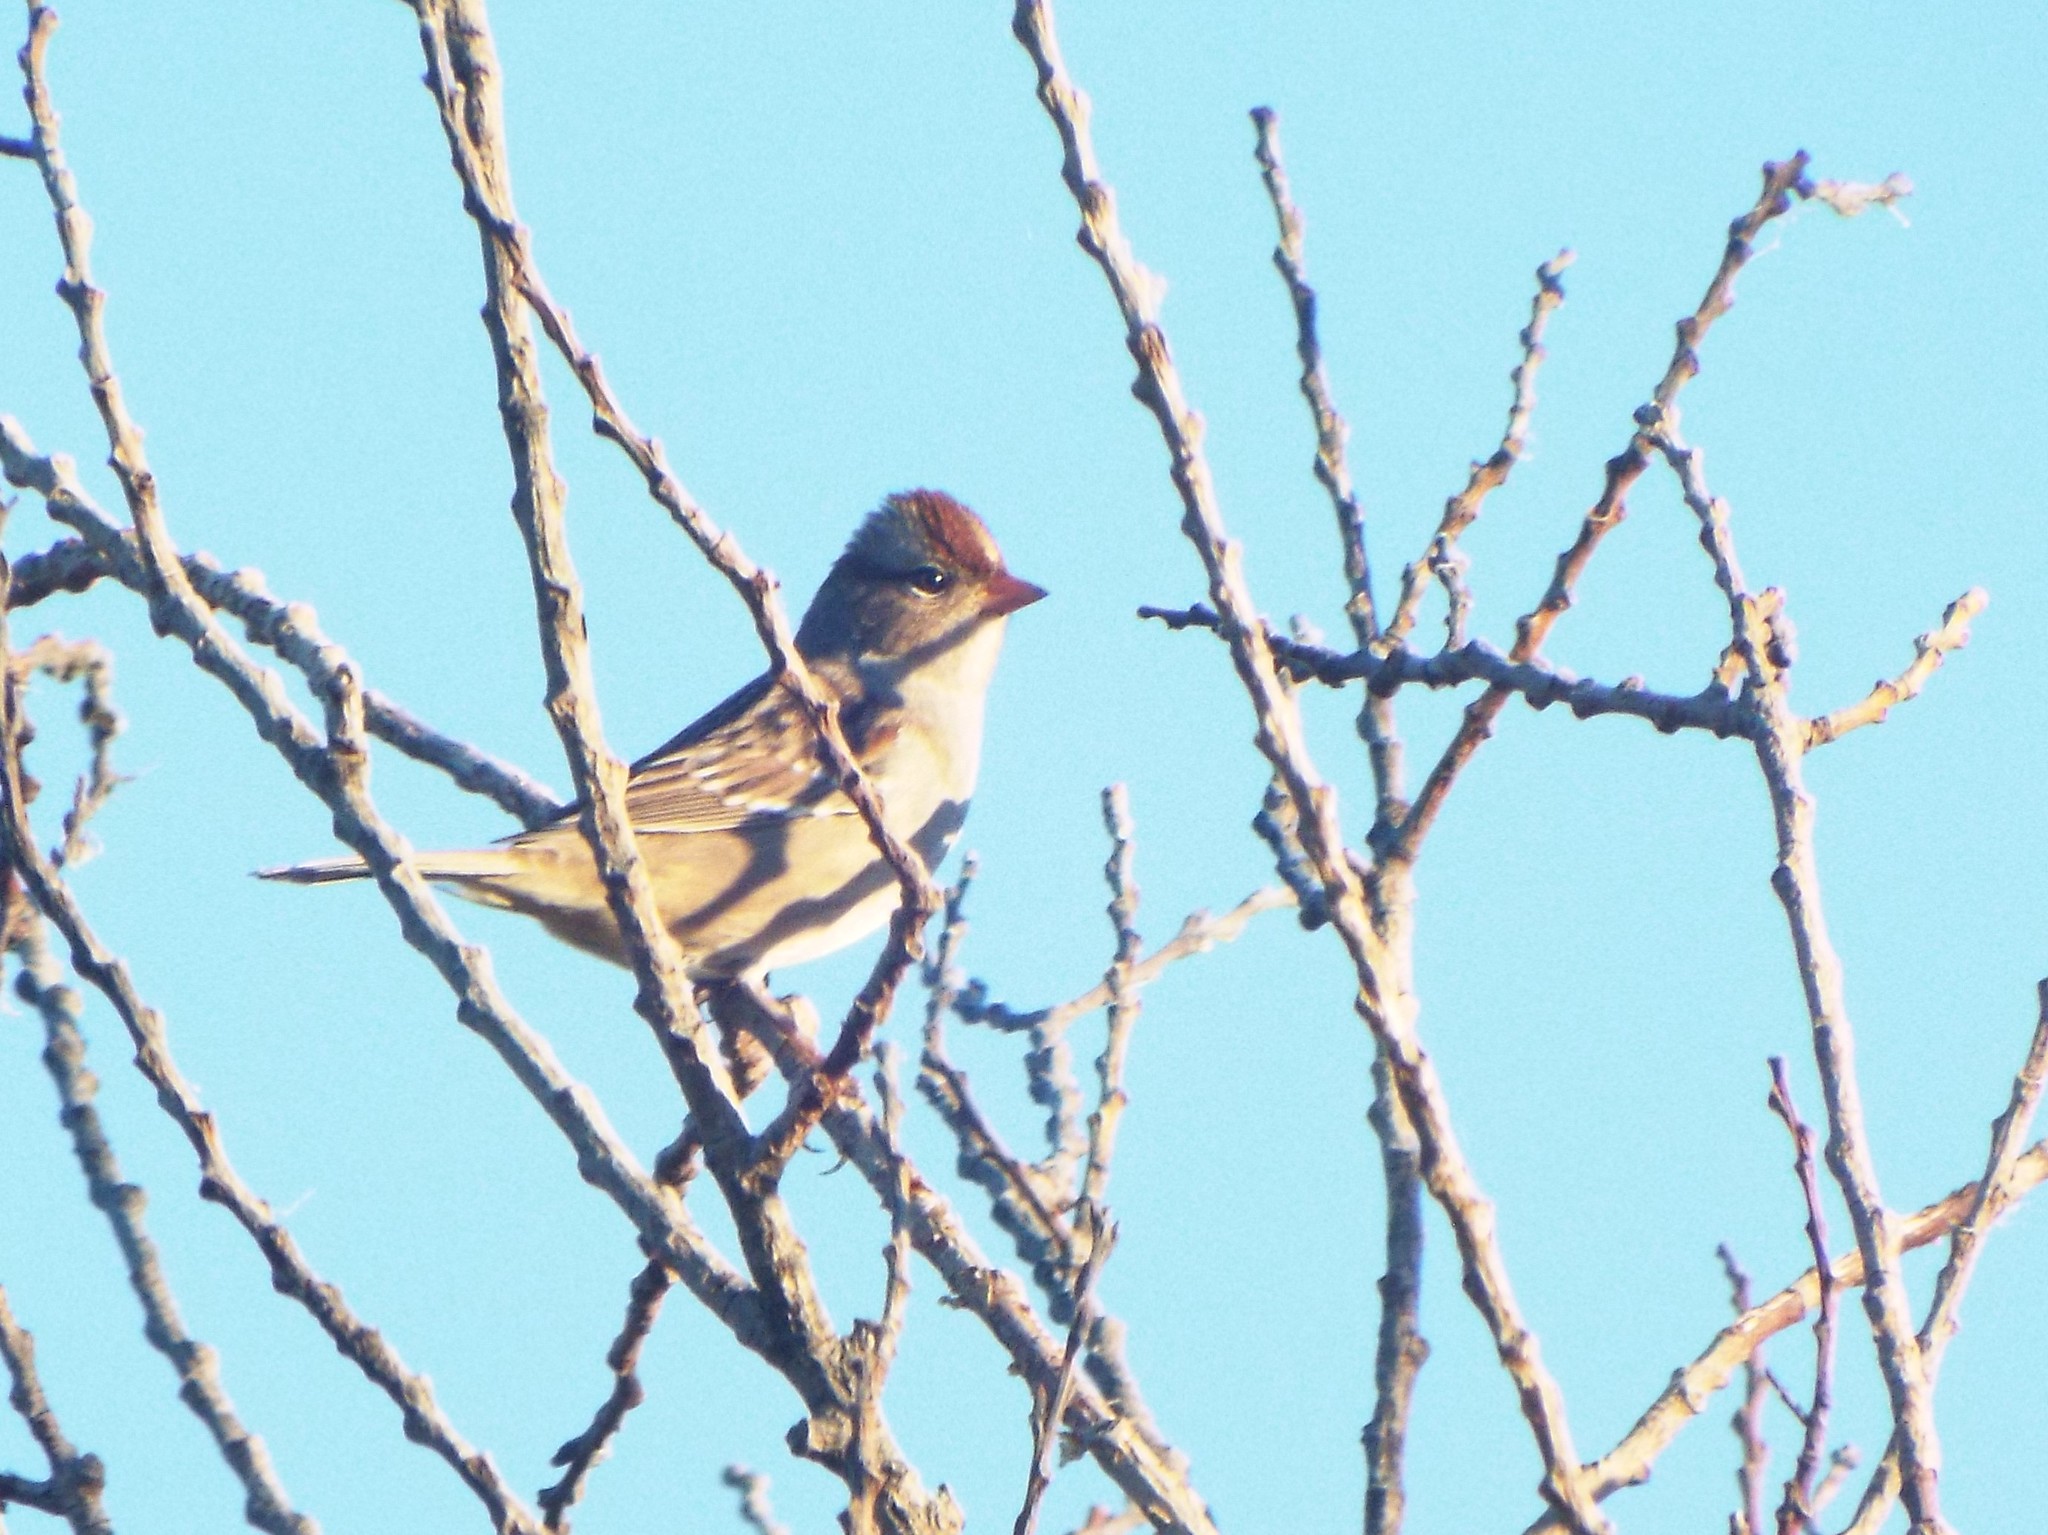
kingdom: Animalia
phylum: Chordata
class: Aves
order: Passeriformes
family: Passerellidae
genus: Zonotrichia
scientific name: Zonotrichia leucophrys
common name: White-crowned sparrow
